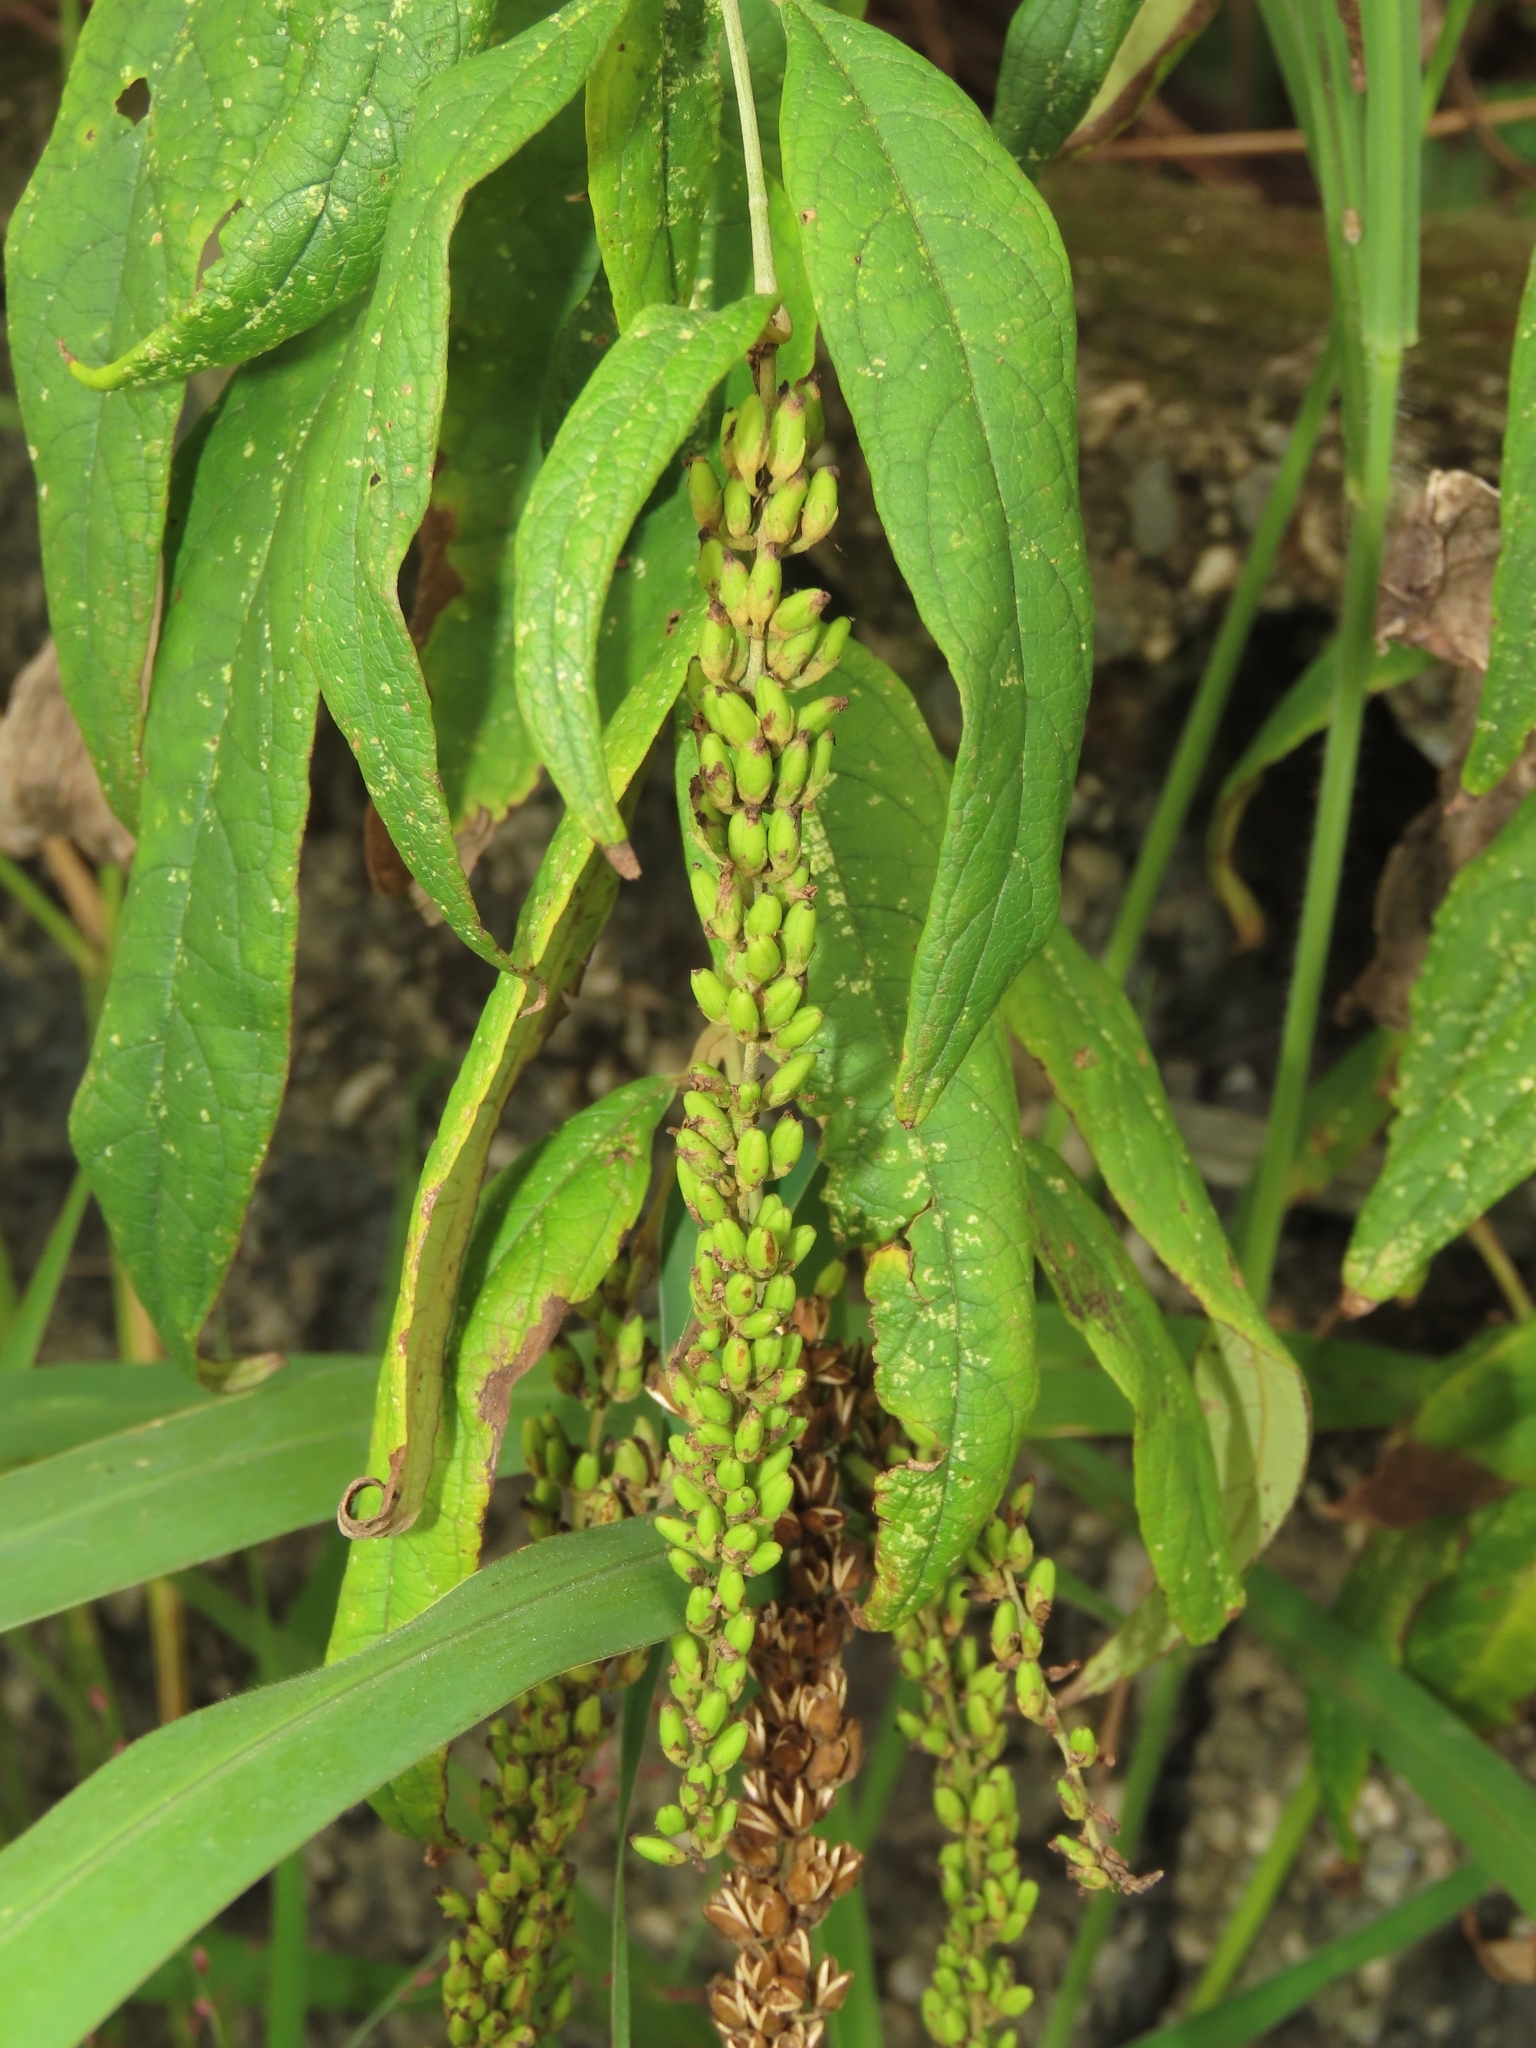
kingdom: Plantae
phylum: Tracheophyta
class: Magnoliopsida
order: Lamiales
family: Scrophulariaceae
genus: Buddleja
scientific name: Buddleja asiatica
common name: Dog tail
